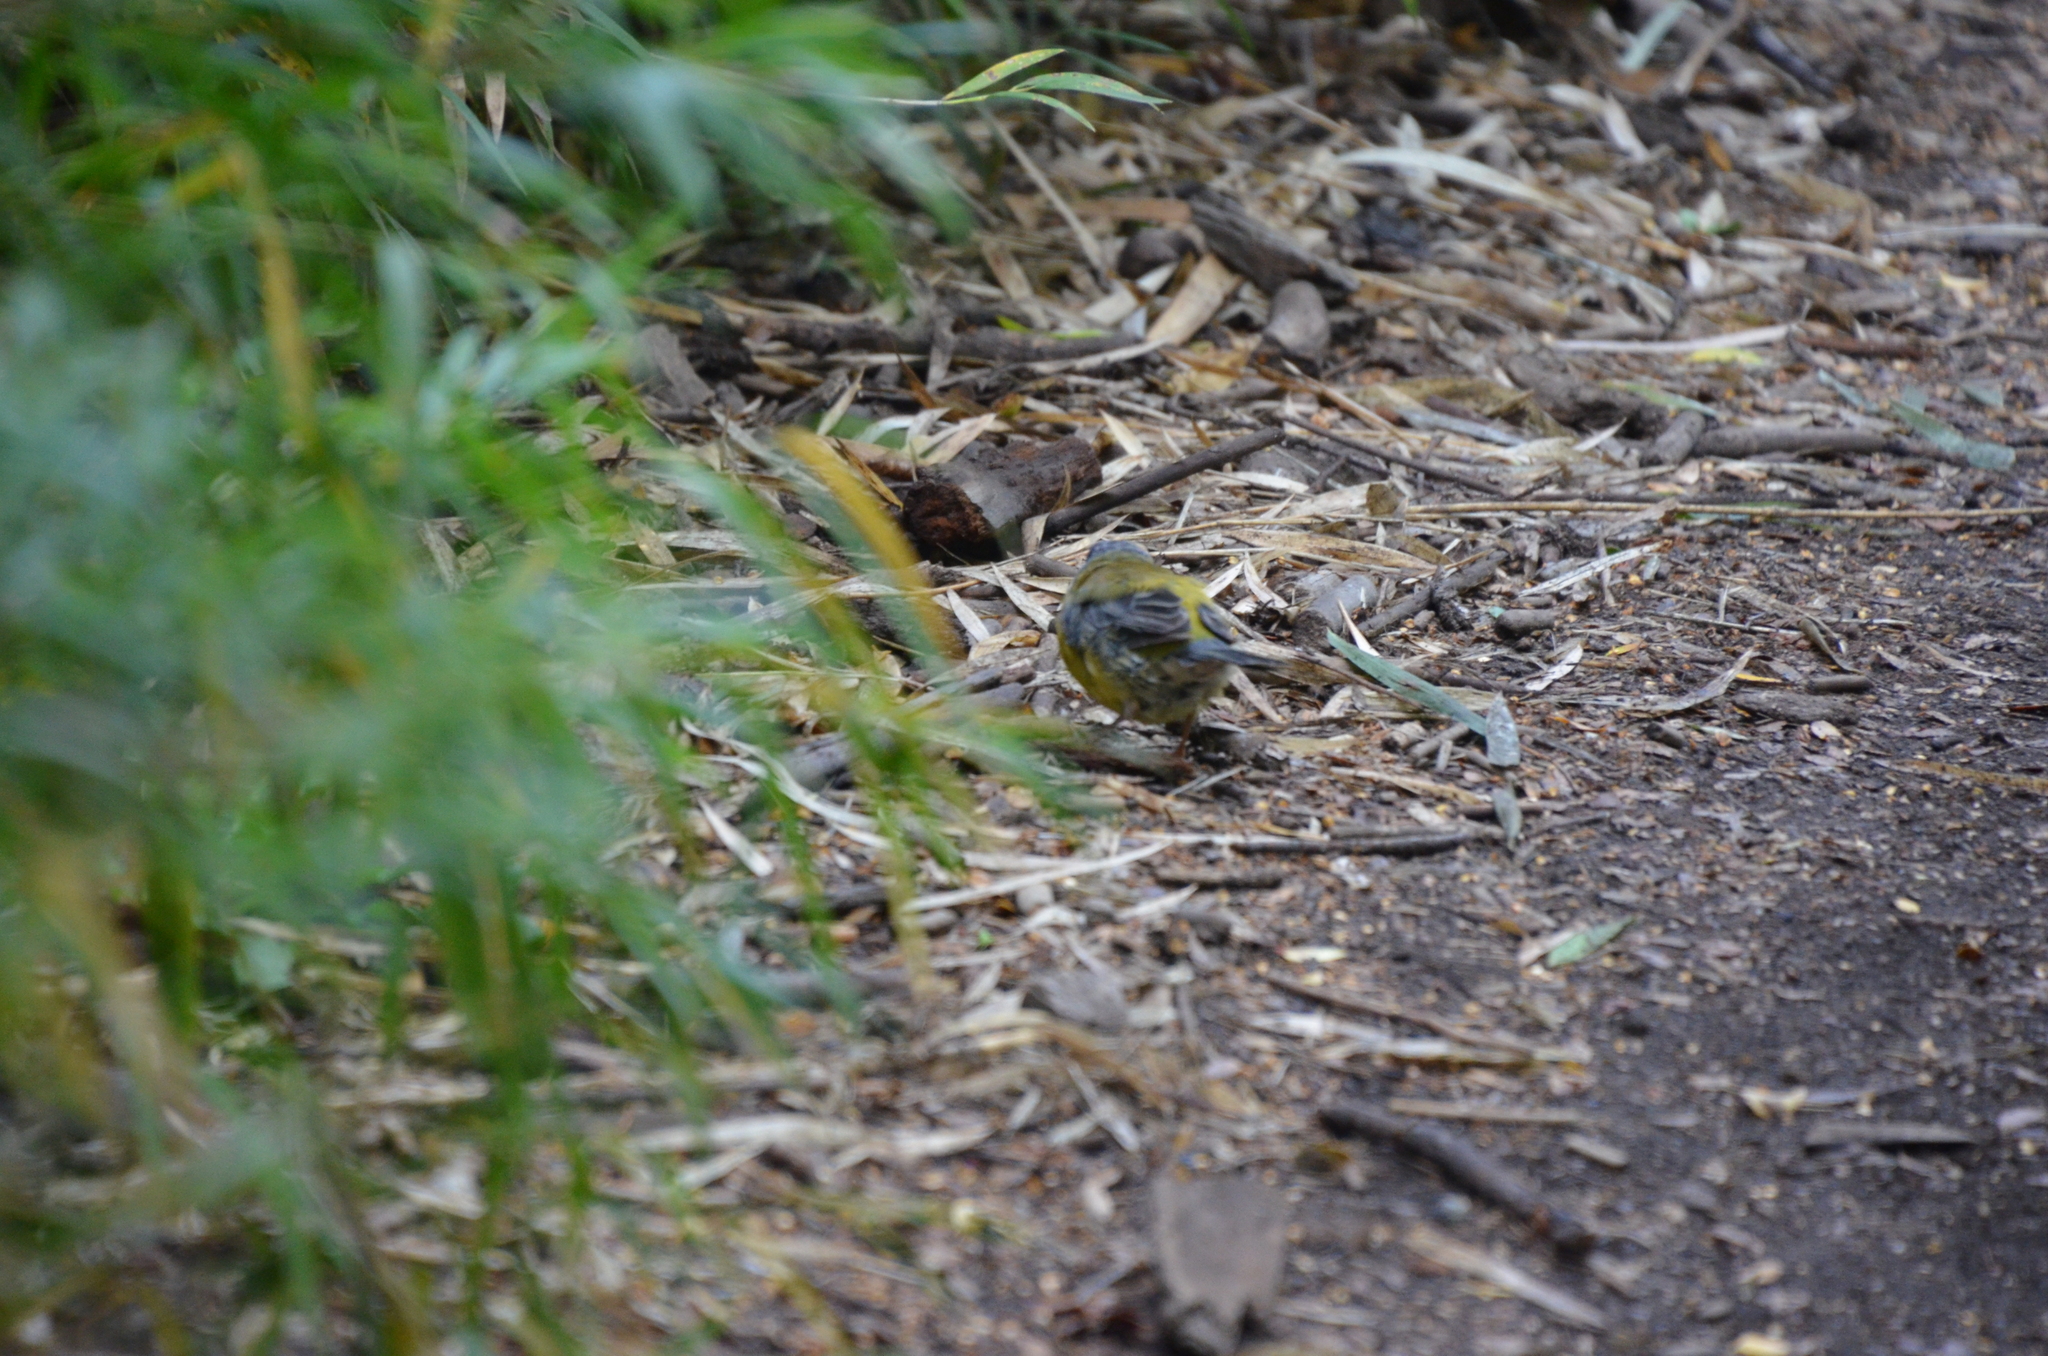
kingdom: Animalia
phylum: Chordata
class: Aves
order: Passeriformes
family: Thraupidae
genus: Phrygilus
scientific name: Phrygilus patagonicus
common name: Patagonian sierra finch
